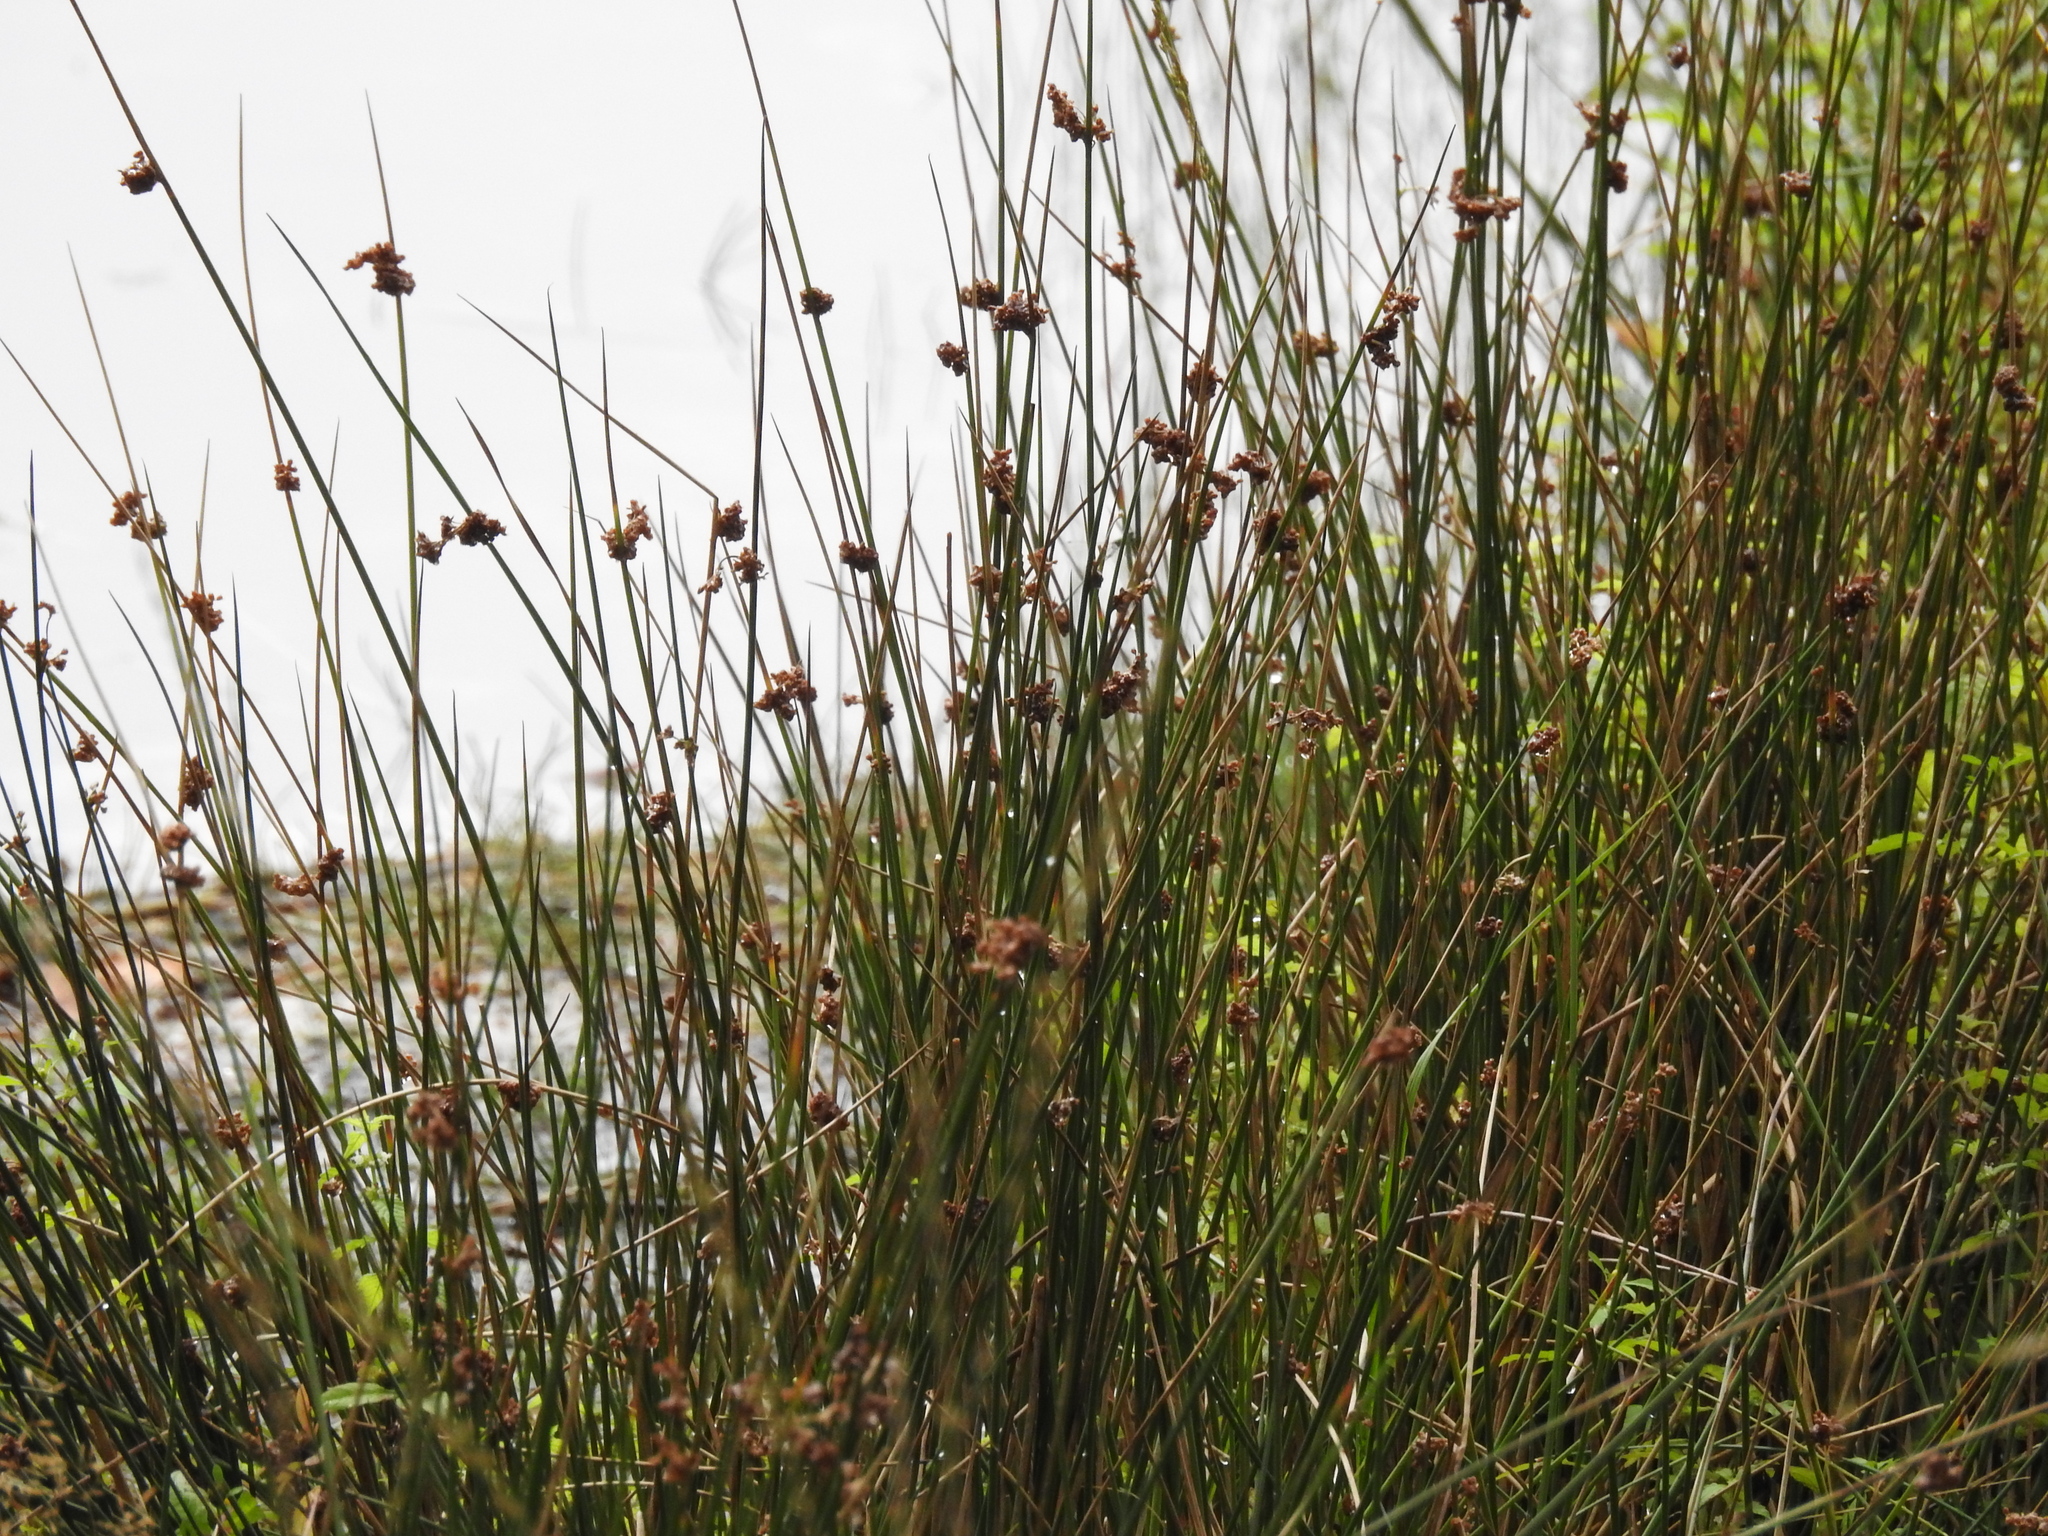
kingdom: Plantae
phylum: Tracheophyta
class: Liliopsida
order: Poales
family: Juncaceae
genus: Juncus
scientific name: Juncus effusus
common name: Soft rush
